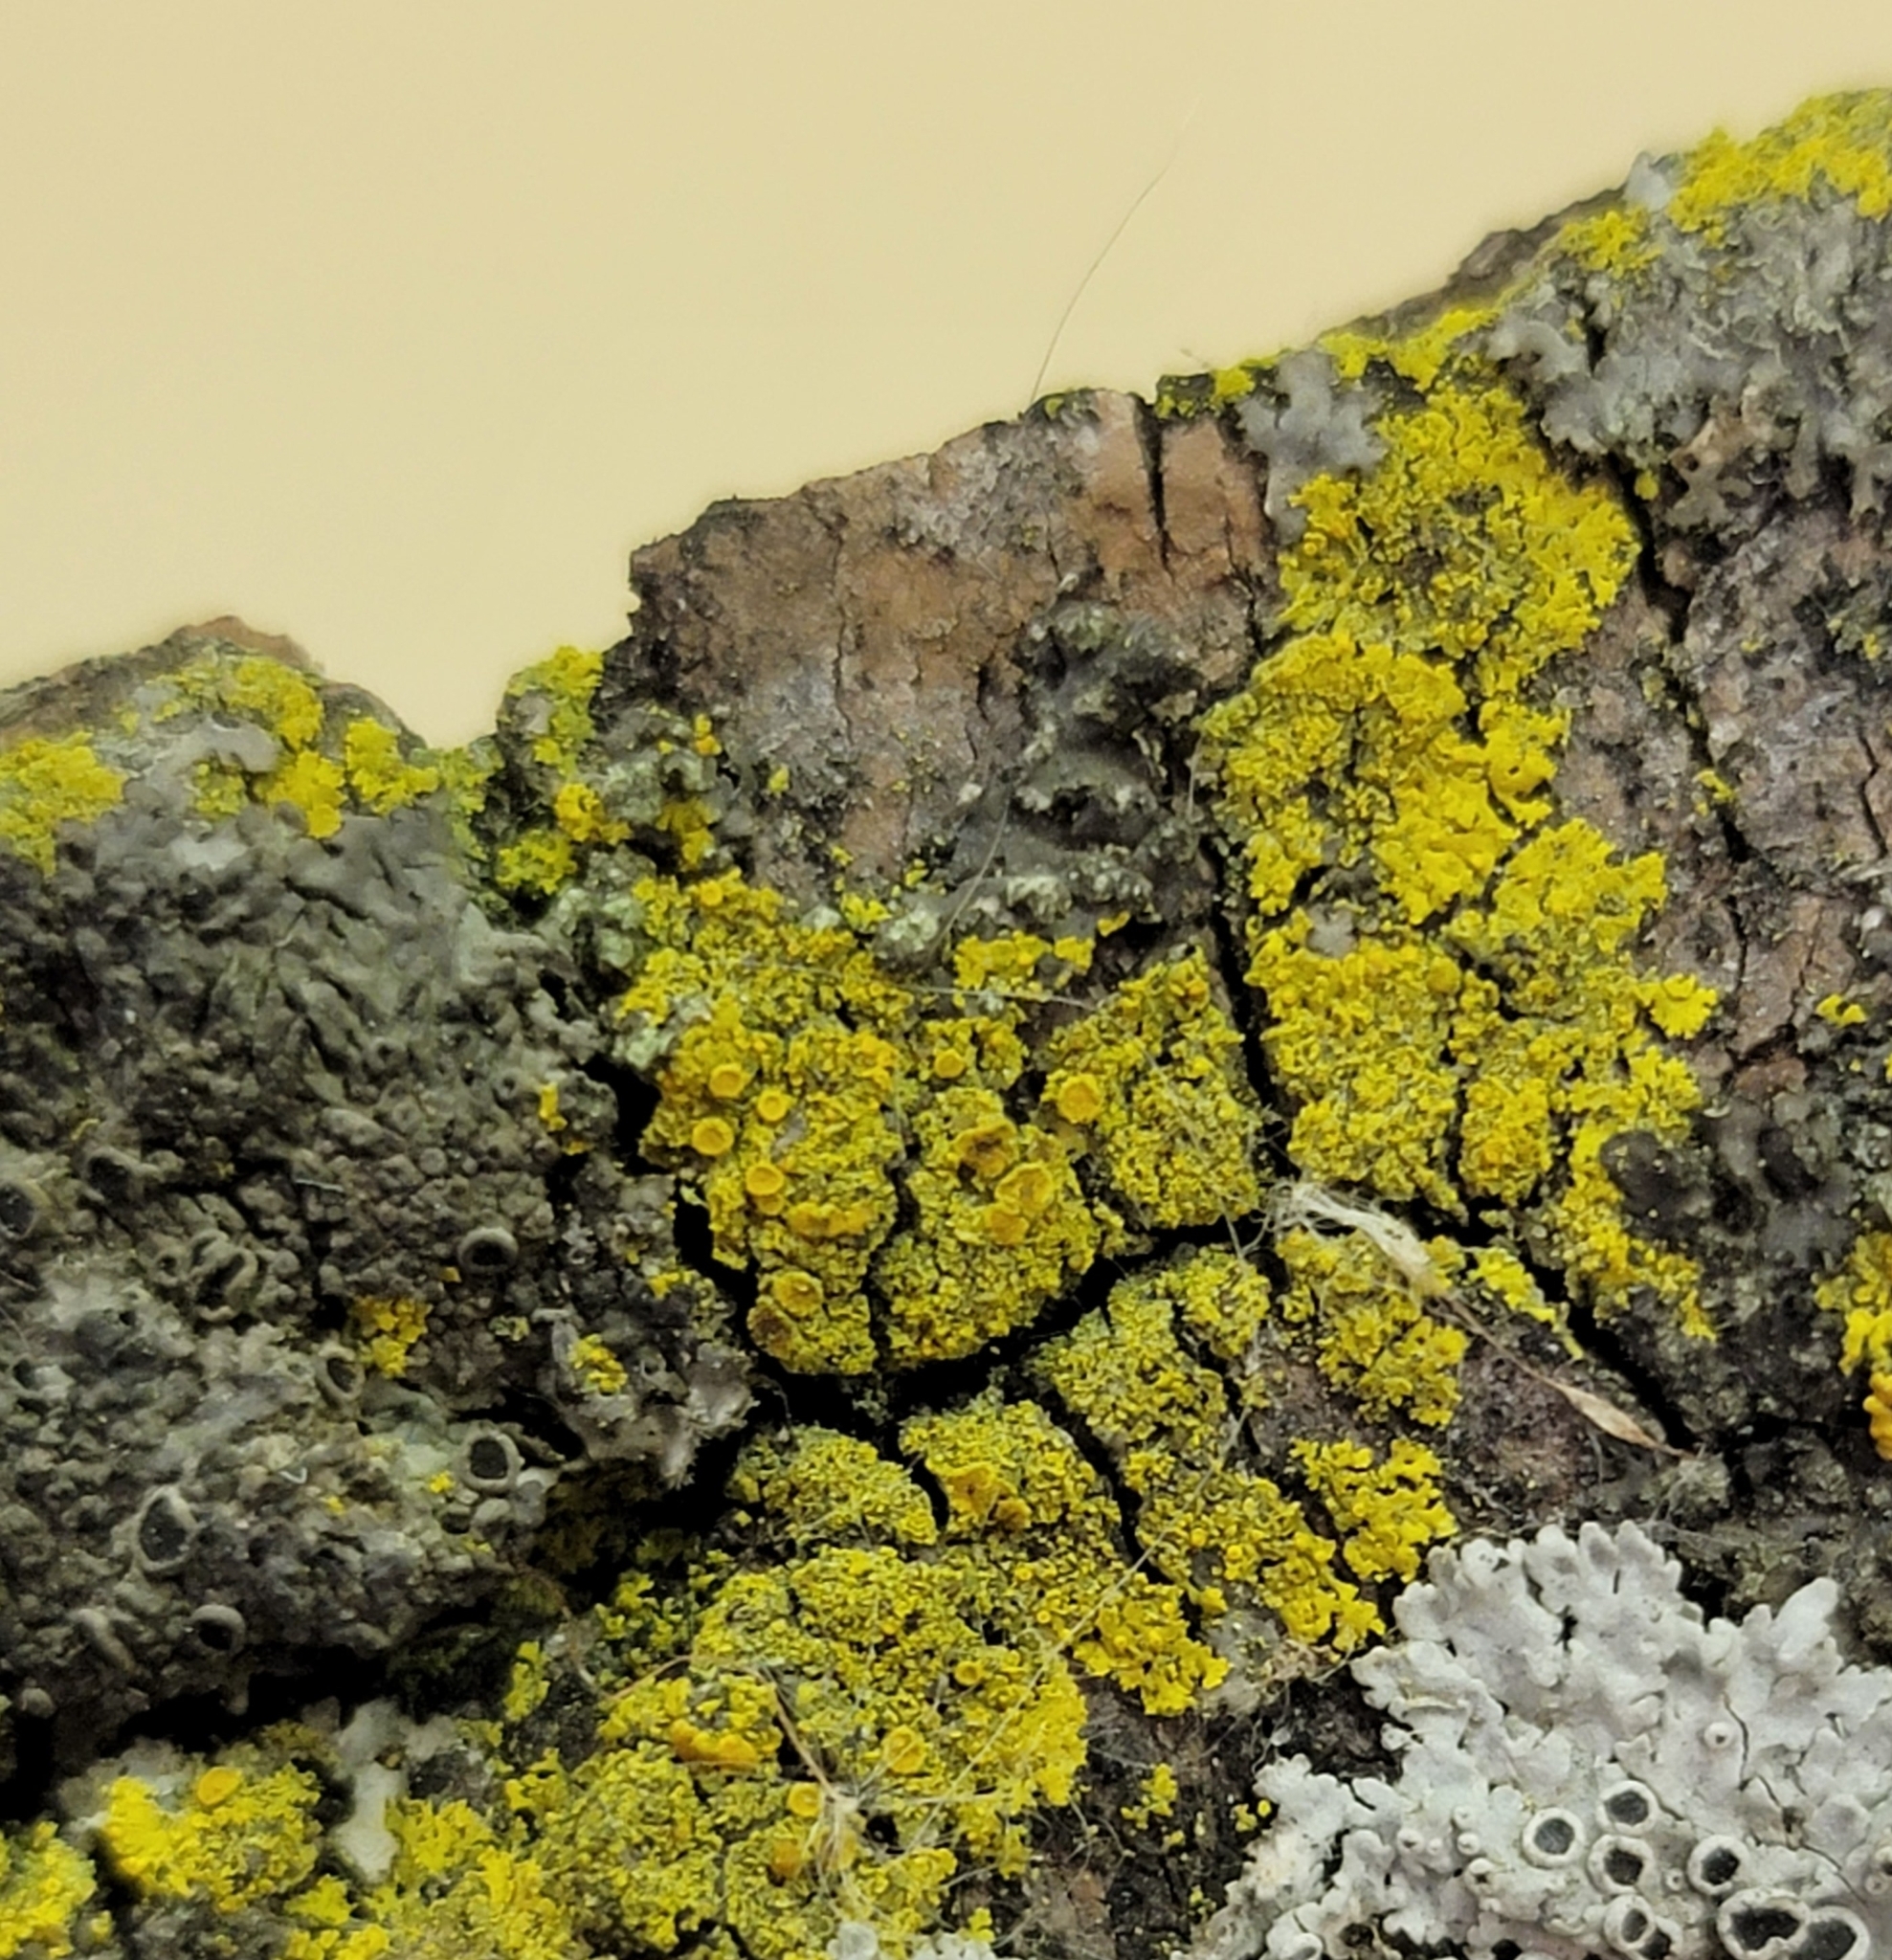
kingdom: Fungi
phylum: Ascomycota
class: Candelariomycetes
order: Candelariales
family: Candelariaceae
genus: Candelaria
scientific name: Candelaria concolor
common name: Candleflame lichen
